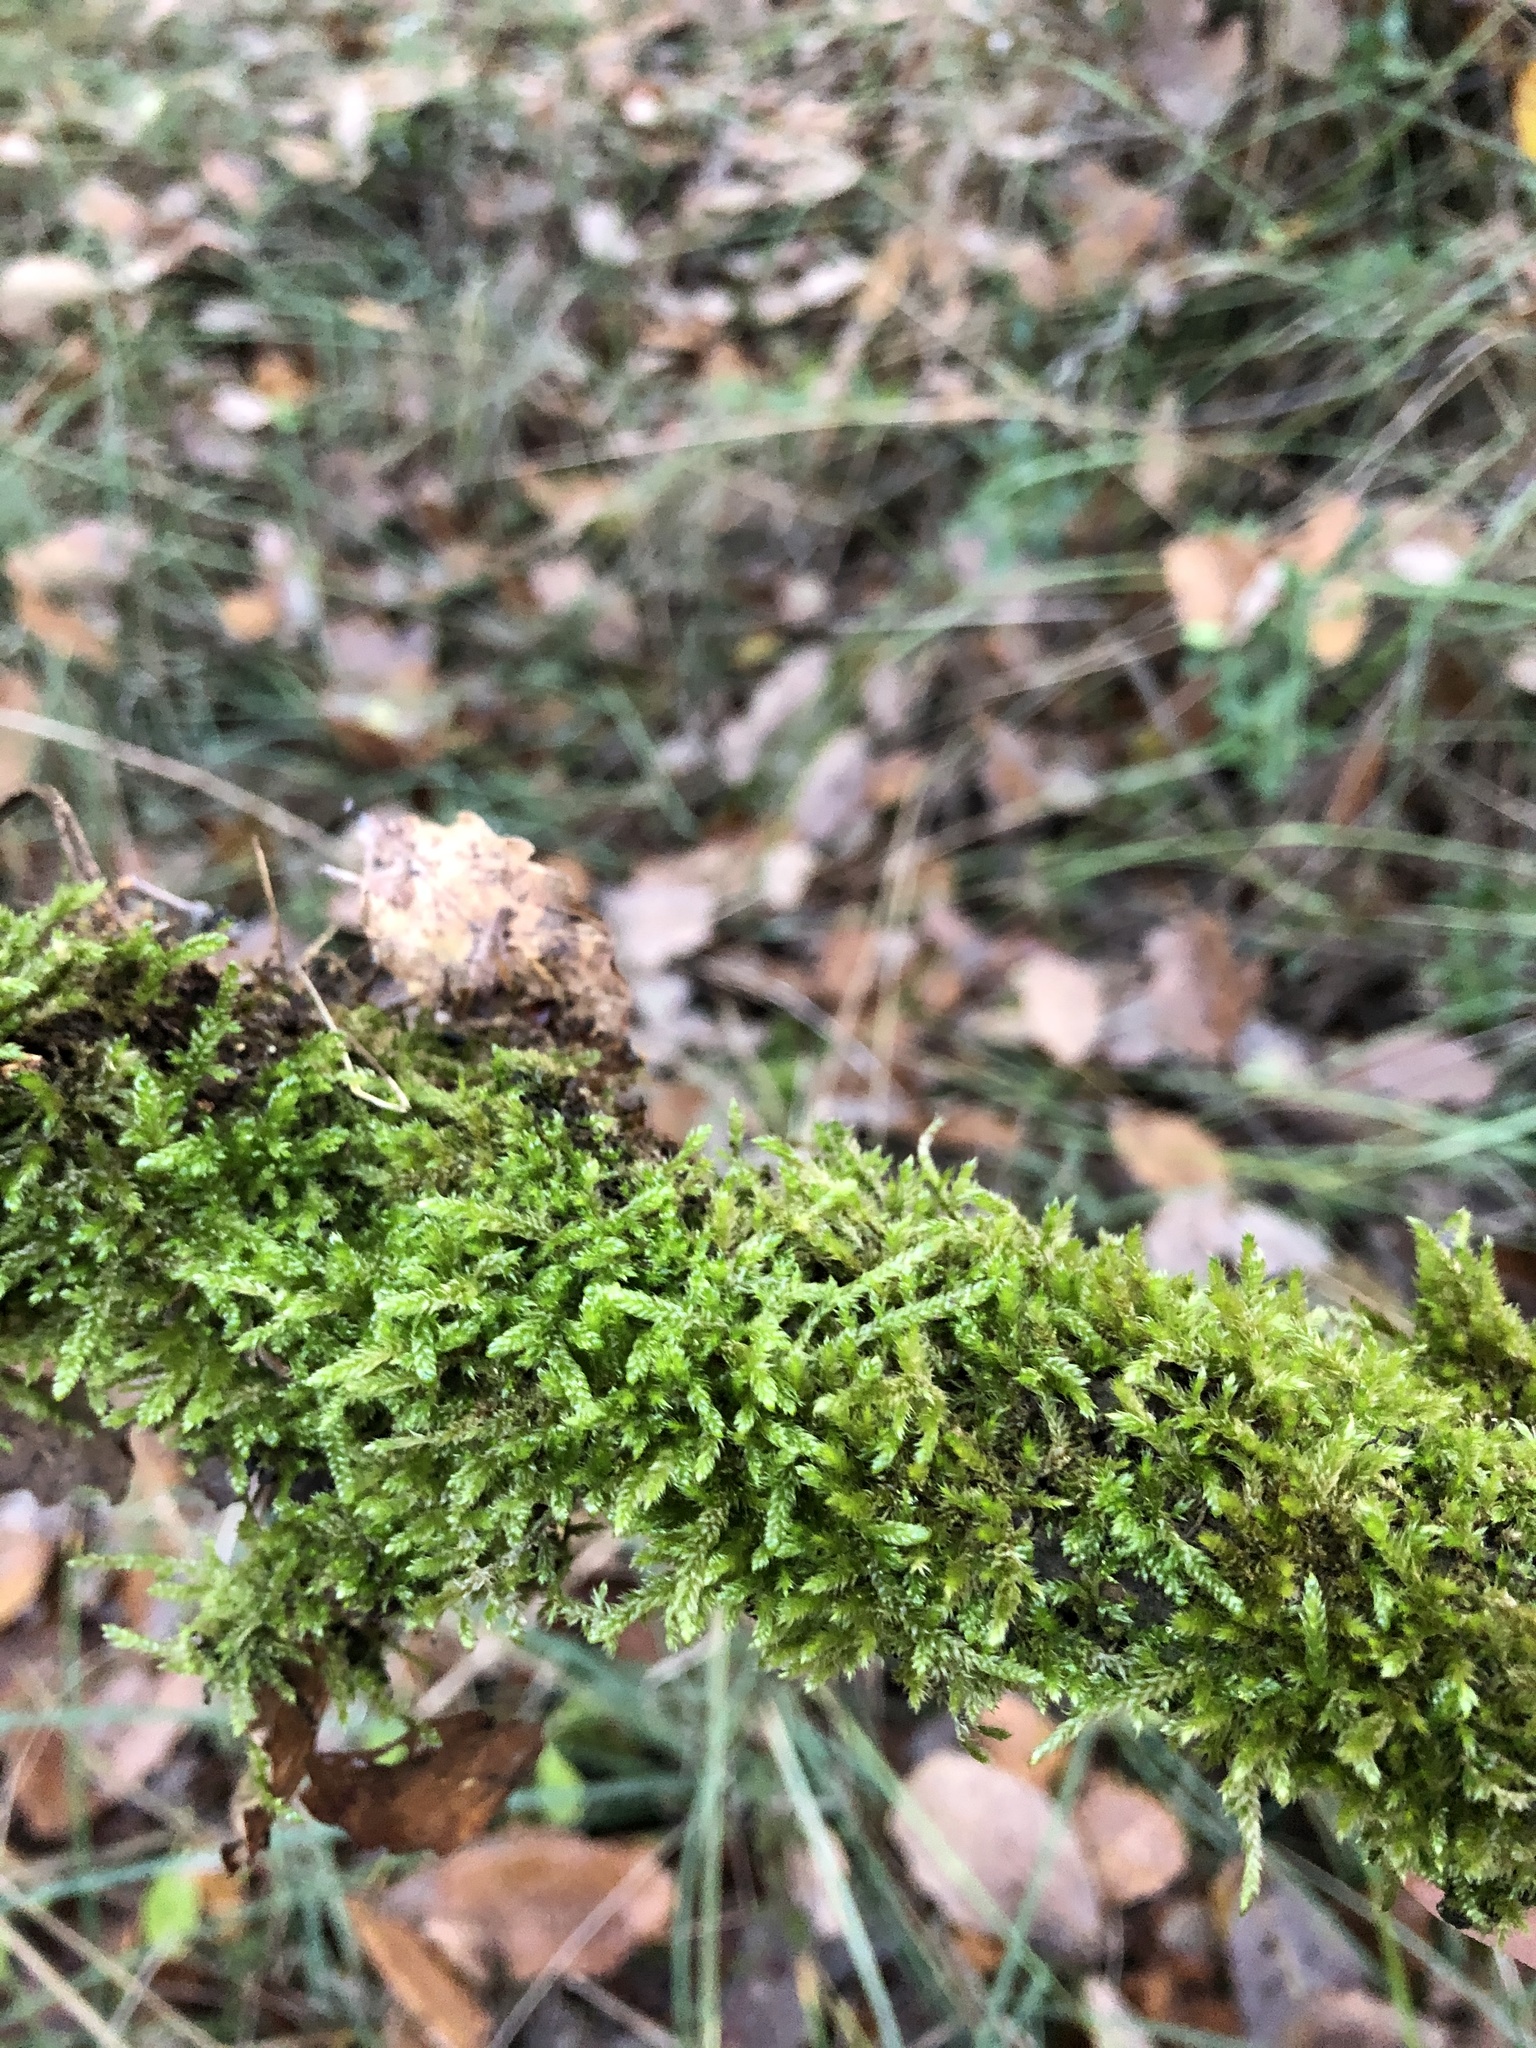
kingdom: Plantae
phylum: Bryophyta
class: Bryopsida
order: Hypnales
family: Hypnaceae
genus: Hypnum
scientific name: Hypnum cupressiforme
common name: Cypress-leaved plait-moss
